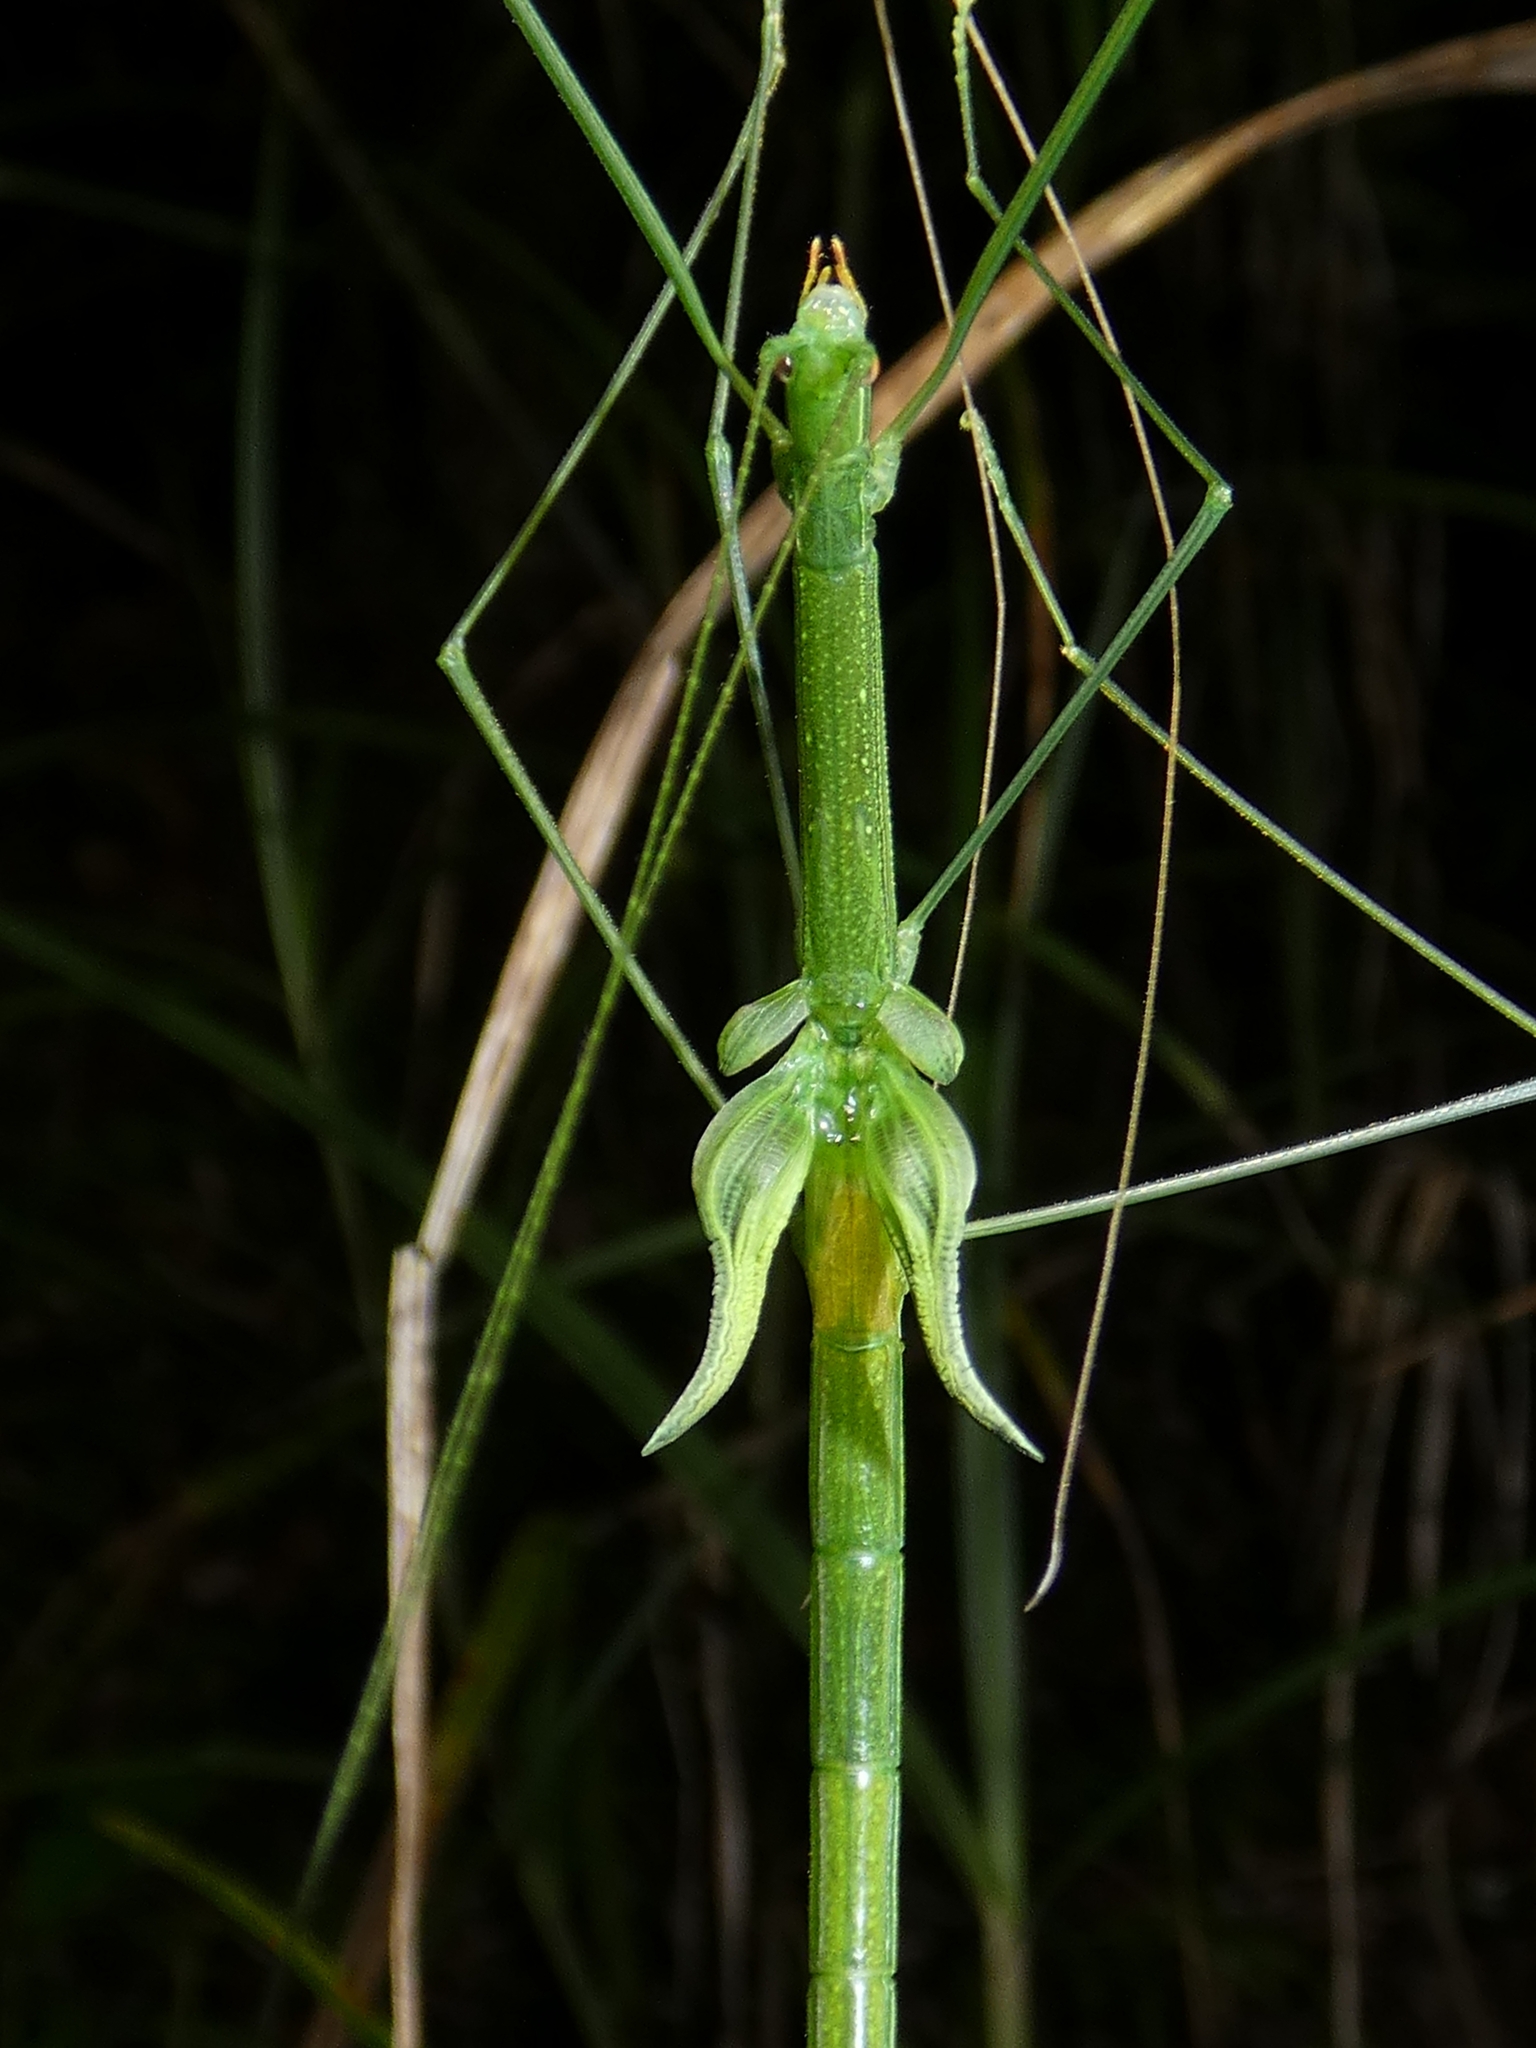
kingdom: Animalia
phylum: Arthropoda
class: Insecta
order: Phasmida
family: Lonchodidae
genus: Sipyloidea
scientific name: Sipyloidea rentzi
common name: Rentz's sipyloidea stick-insect
